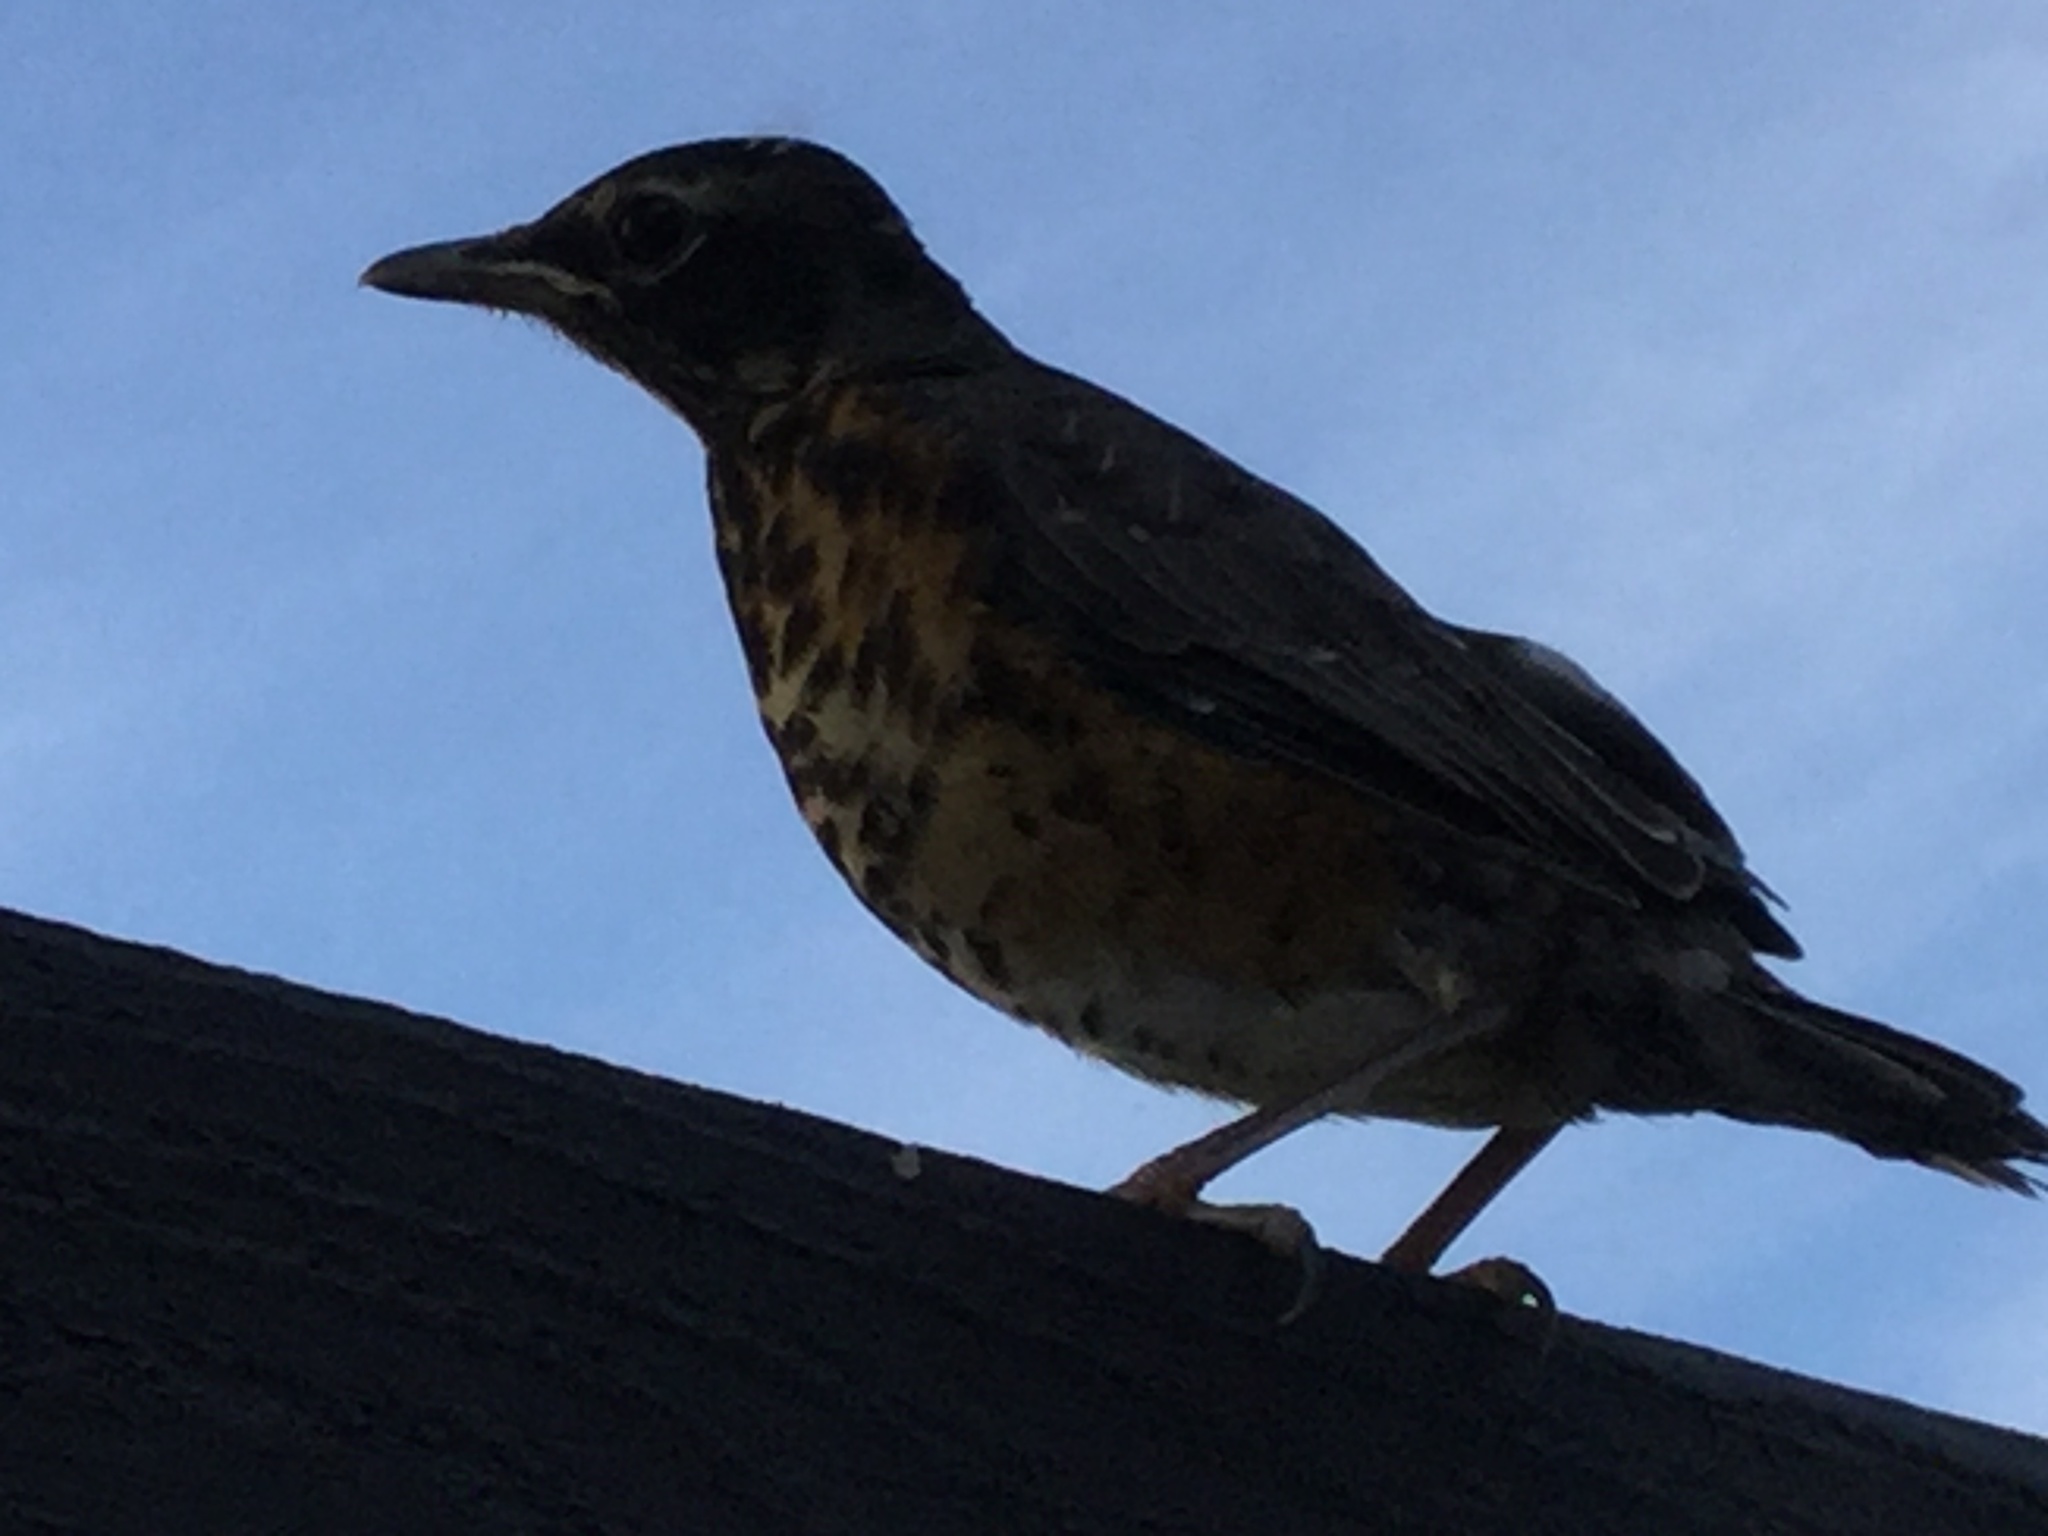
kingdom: Animalia
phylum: Chordata
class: Aves
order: Passeriformes
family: Turdidae
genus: Turdus
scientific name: Turdus migratorius
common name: American robin
